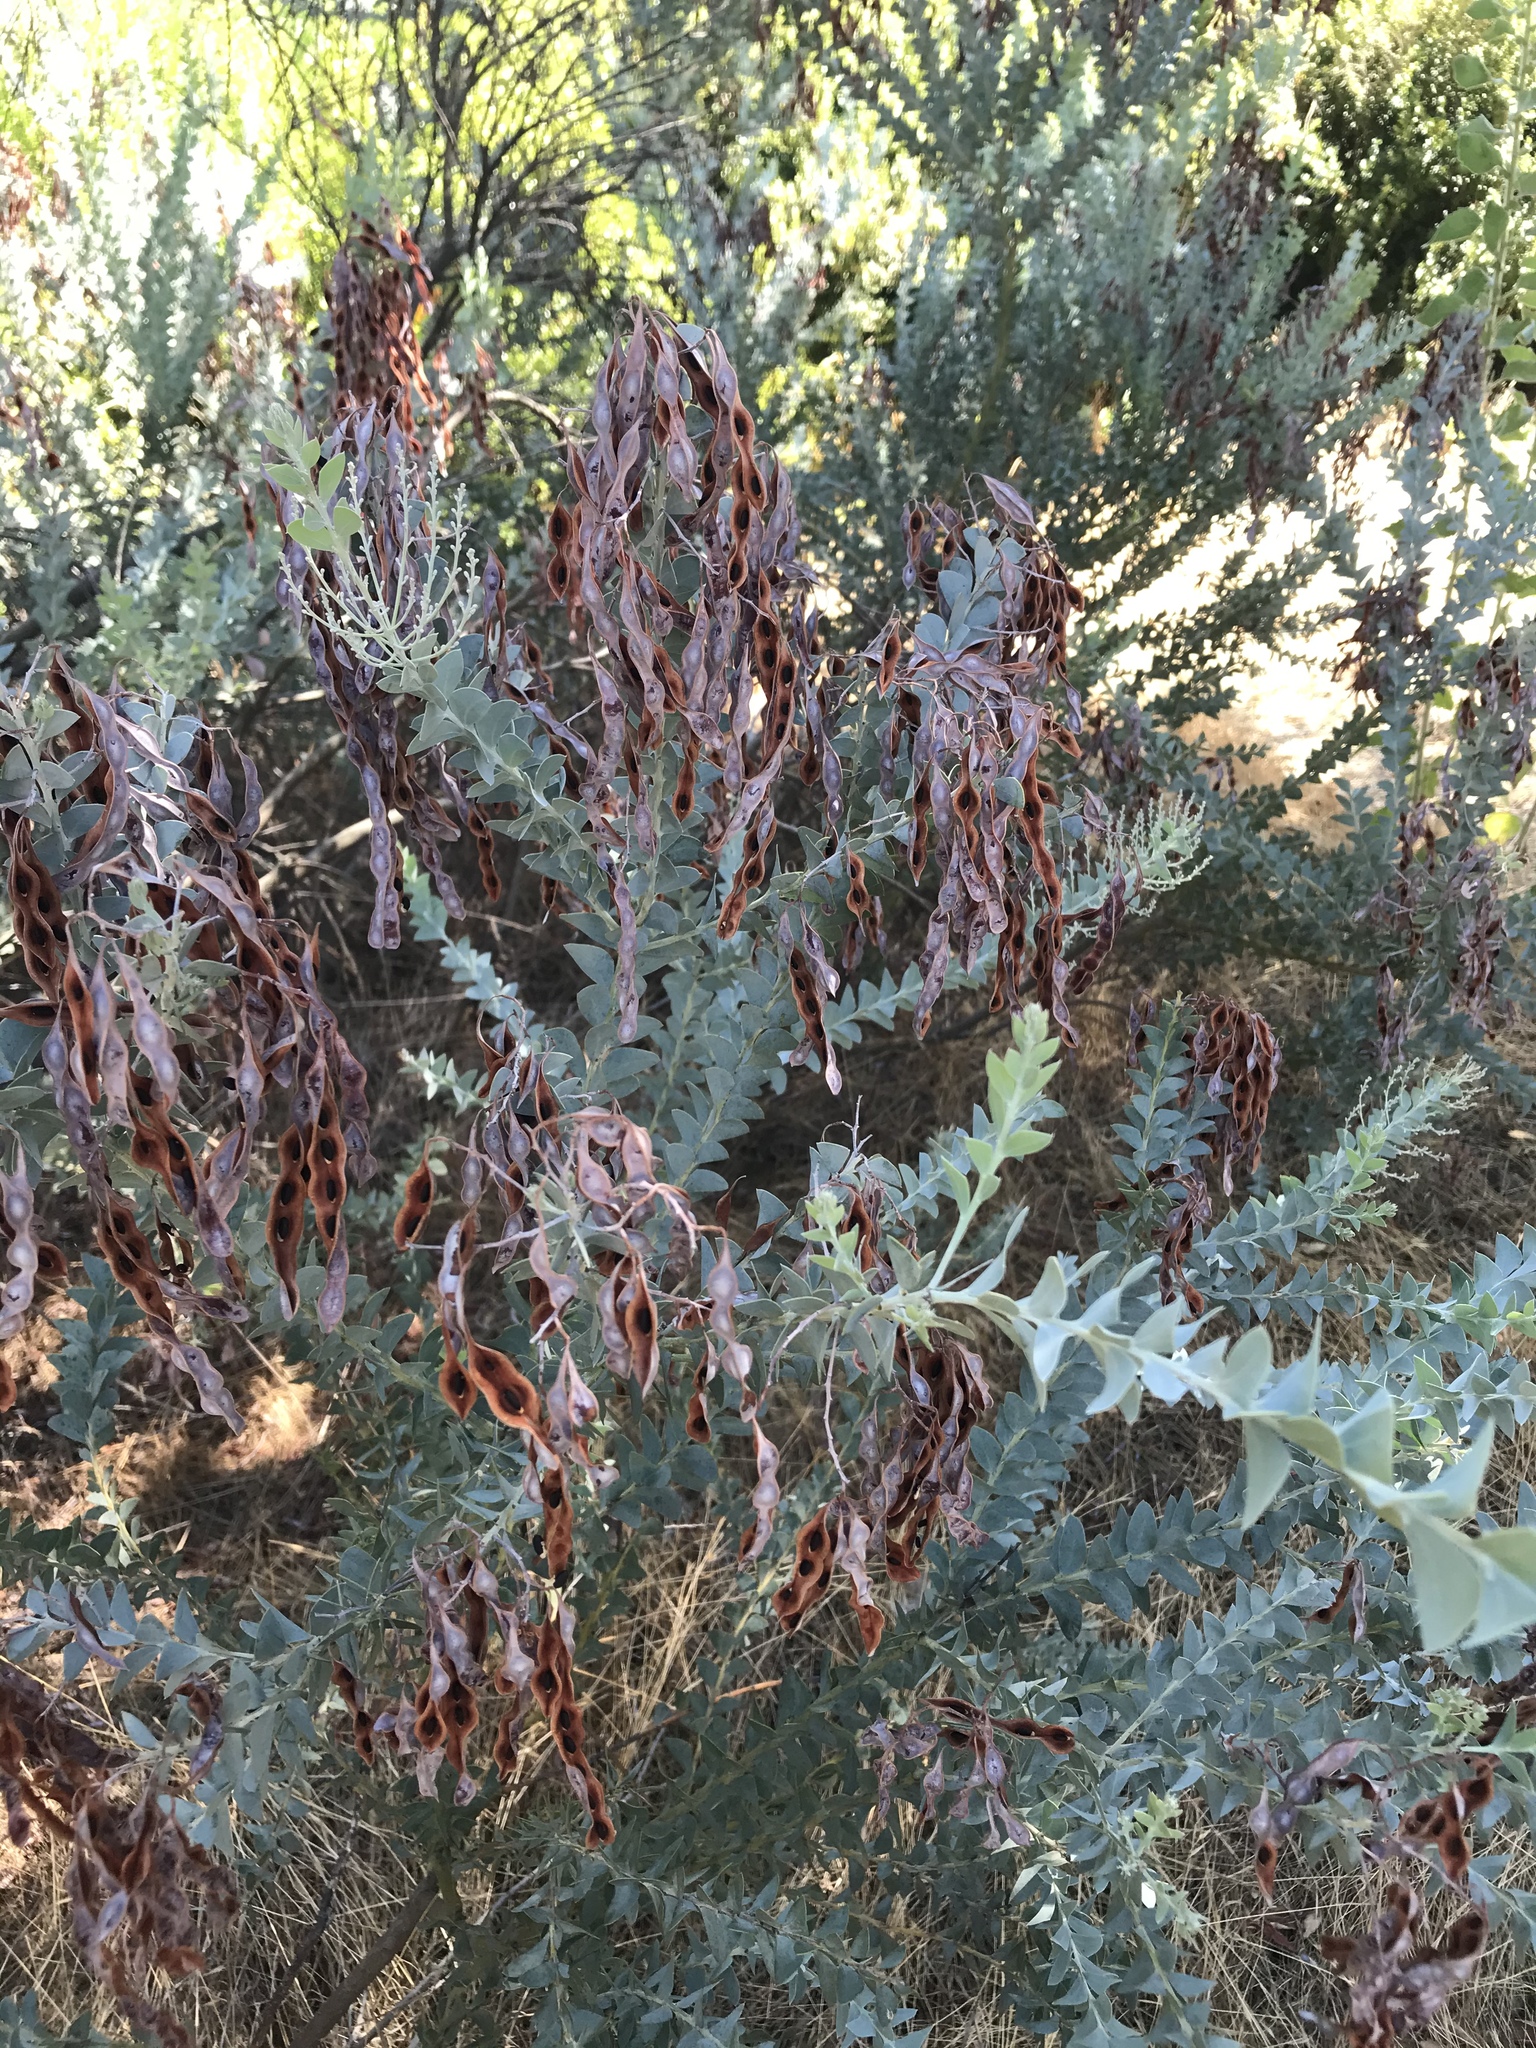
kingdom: Plantae
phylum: Tracheophyta
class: Magnoliopsida
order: Fabales
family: Fabaceae
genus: Acacia
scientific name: Acacia cultriformis
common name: Knife acacia
